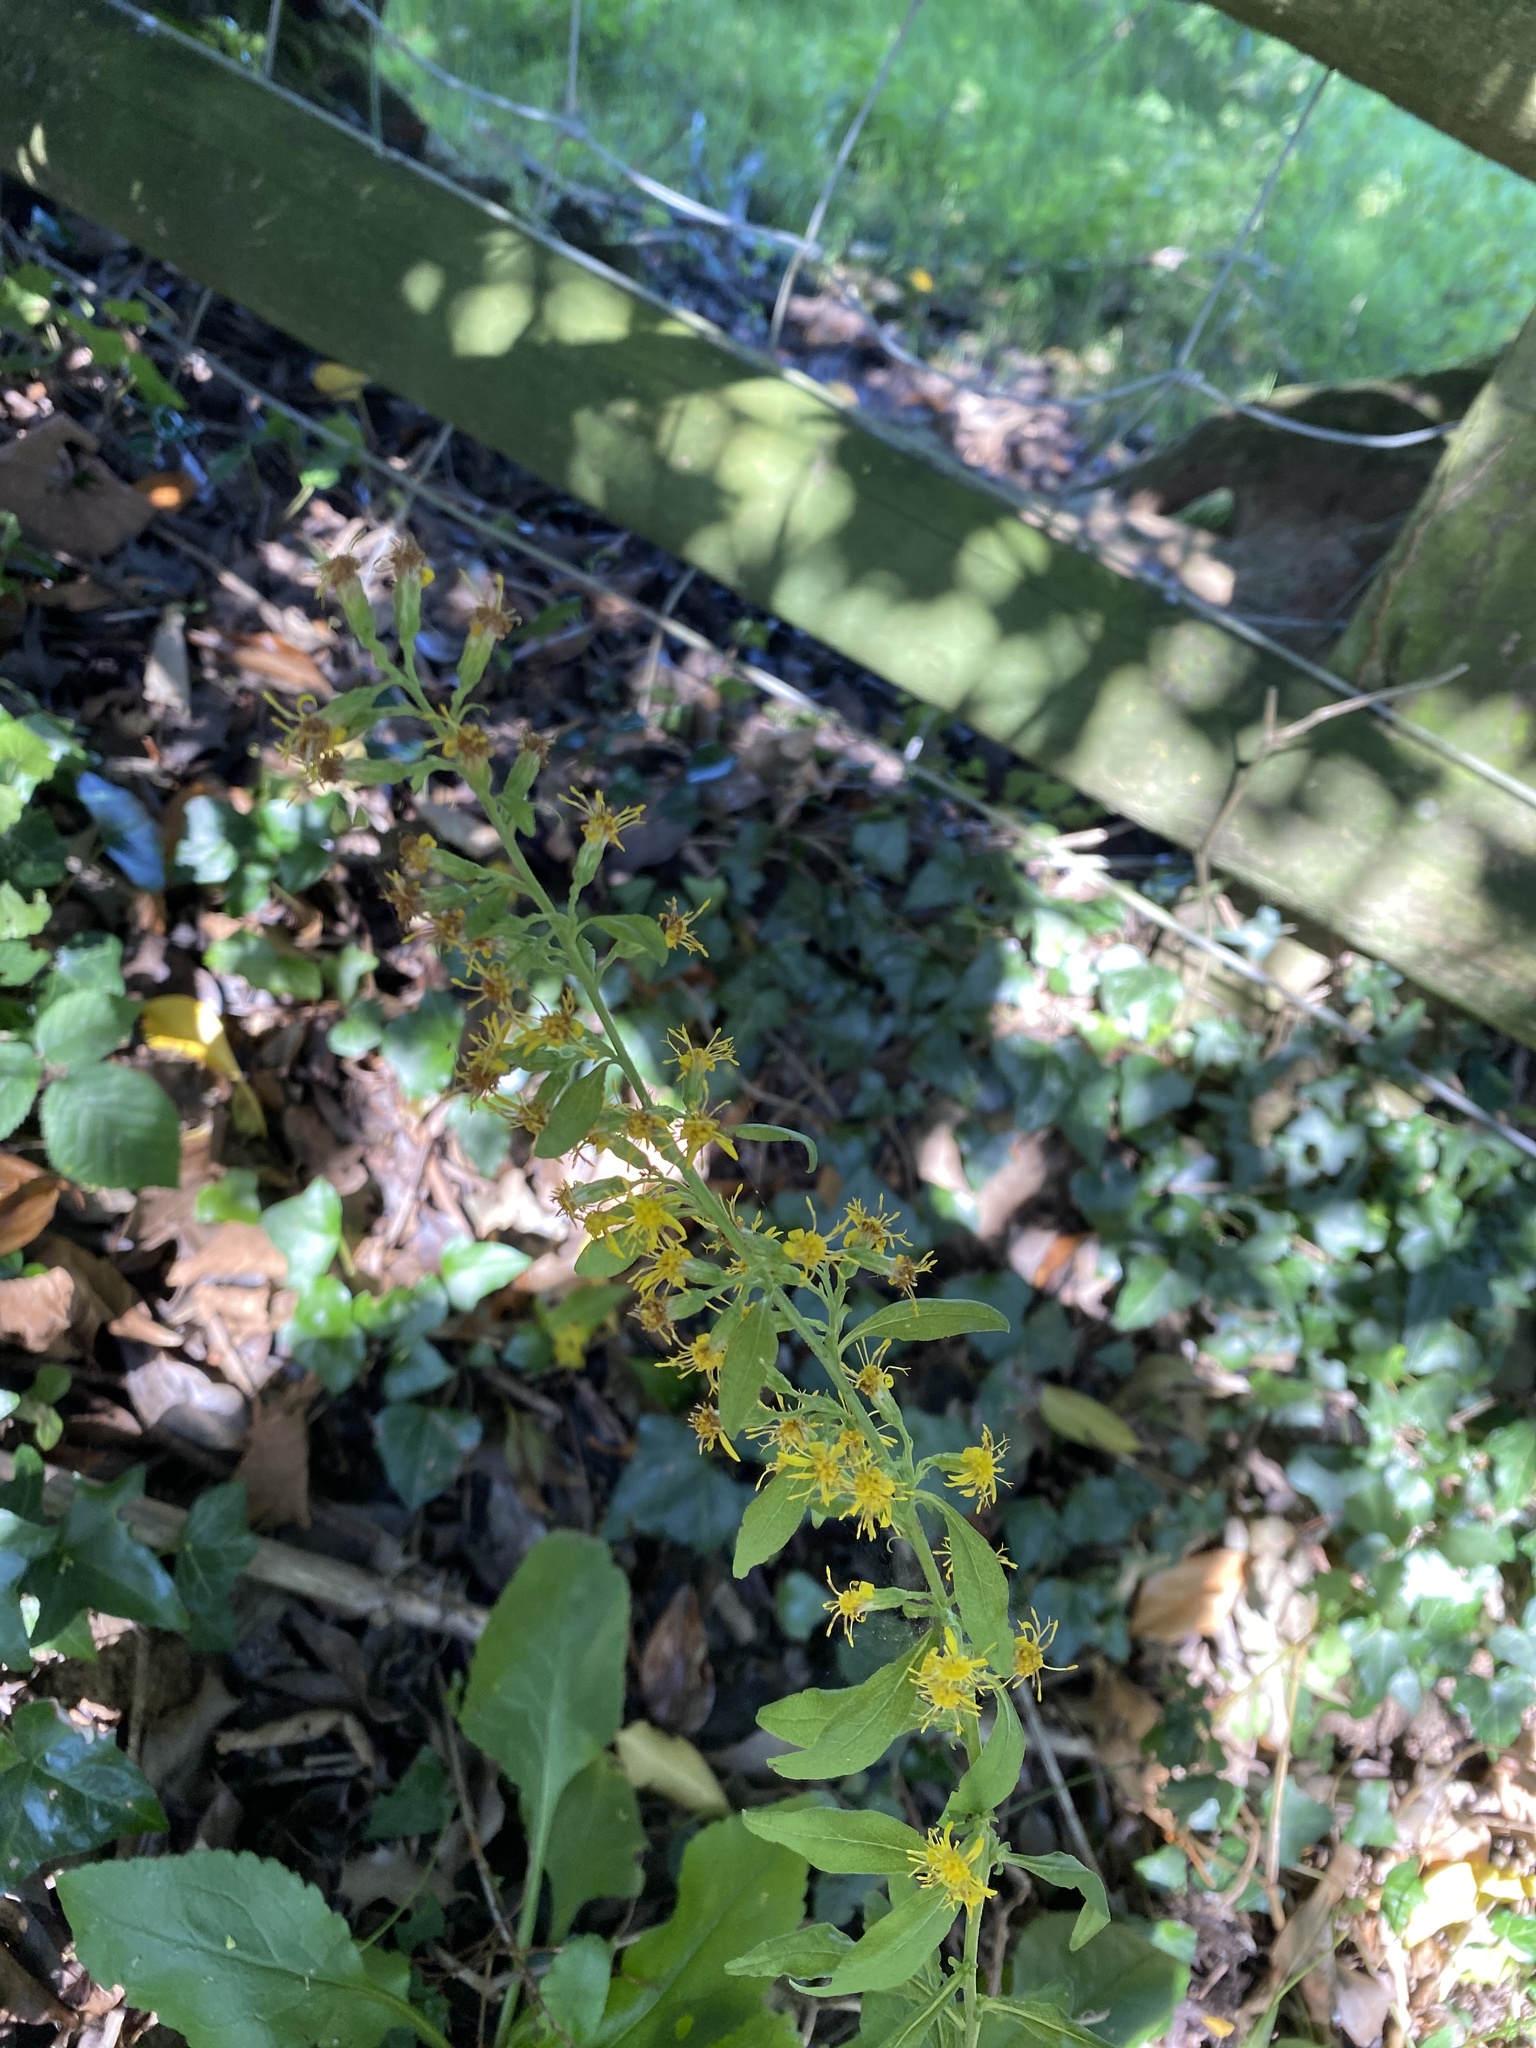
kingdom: Plantae
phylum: Tracheophyta
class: Magnoliopsida
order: Asterales
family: Asteraceae
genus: Solidago
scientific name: Solidago virgaurea
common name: Goldenrod
